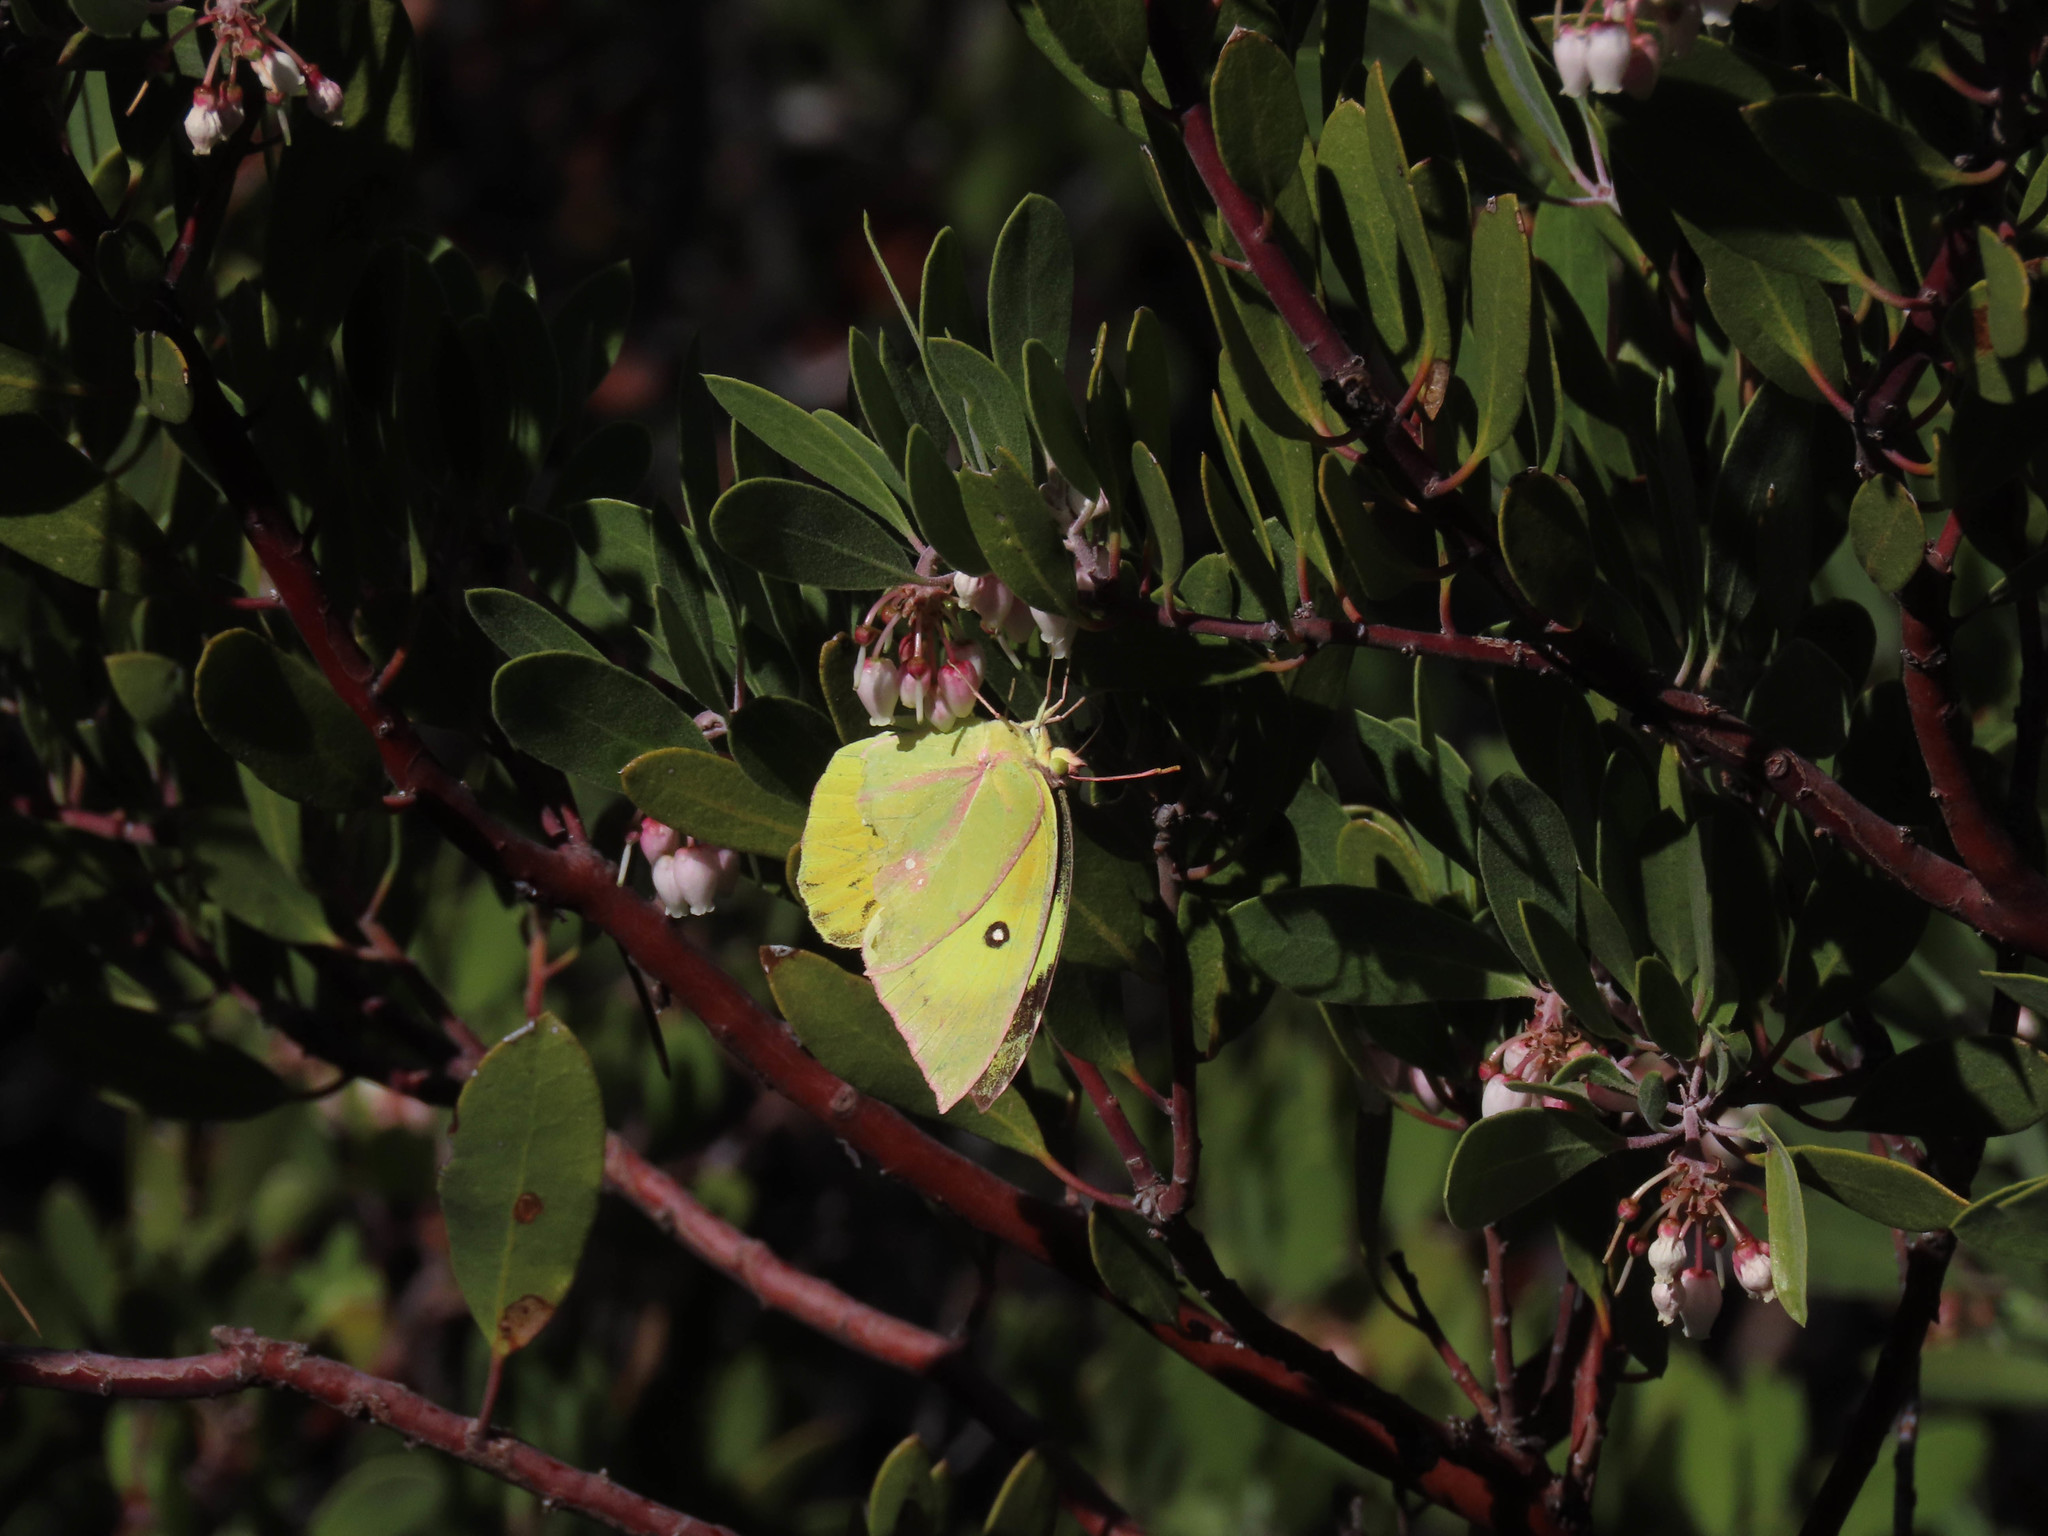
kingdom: Animalia
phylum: Arthropoda
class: Insecta
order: Lepidoptera
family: Pieridae
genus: Zerene
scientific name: Zerene cesonia
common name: Southern dogface
